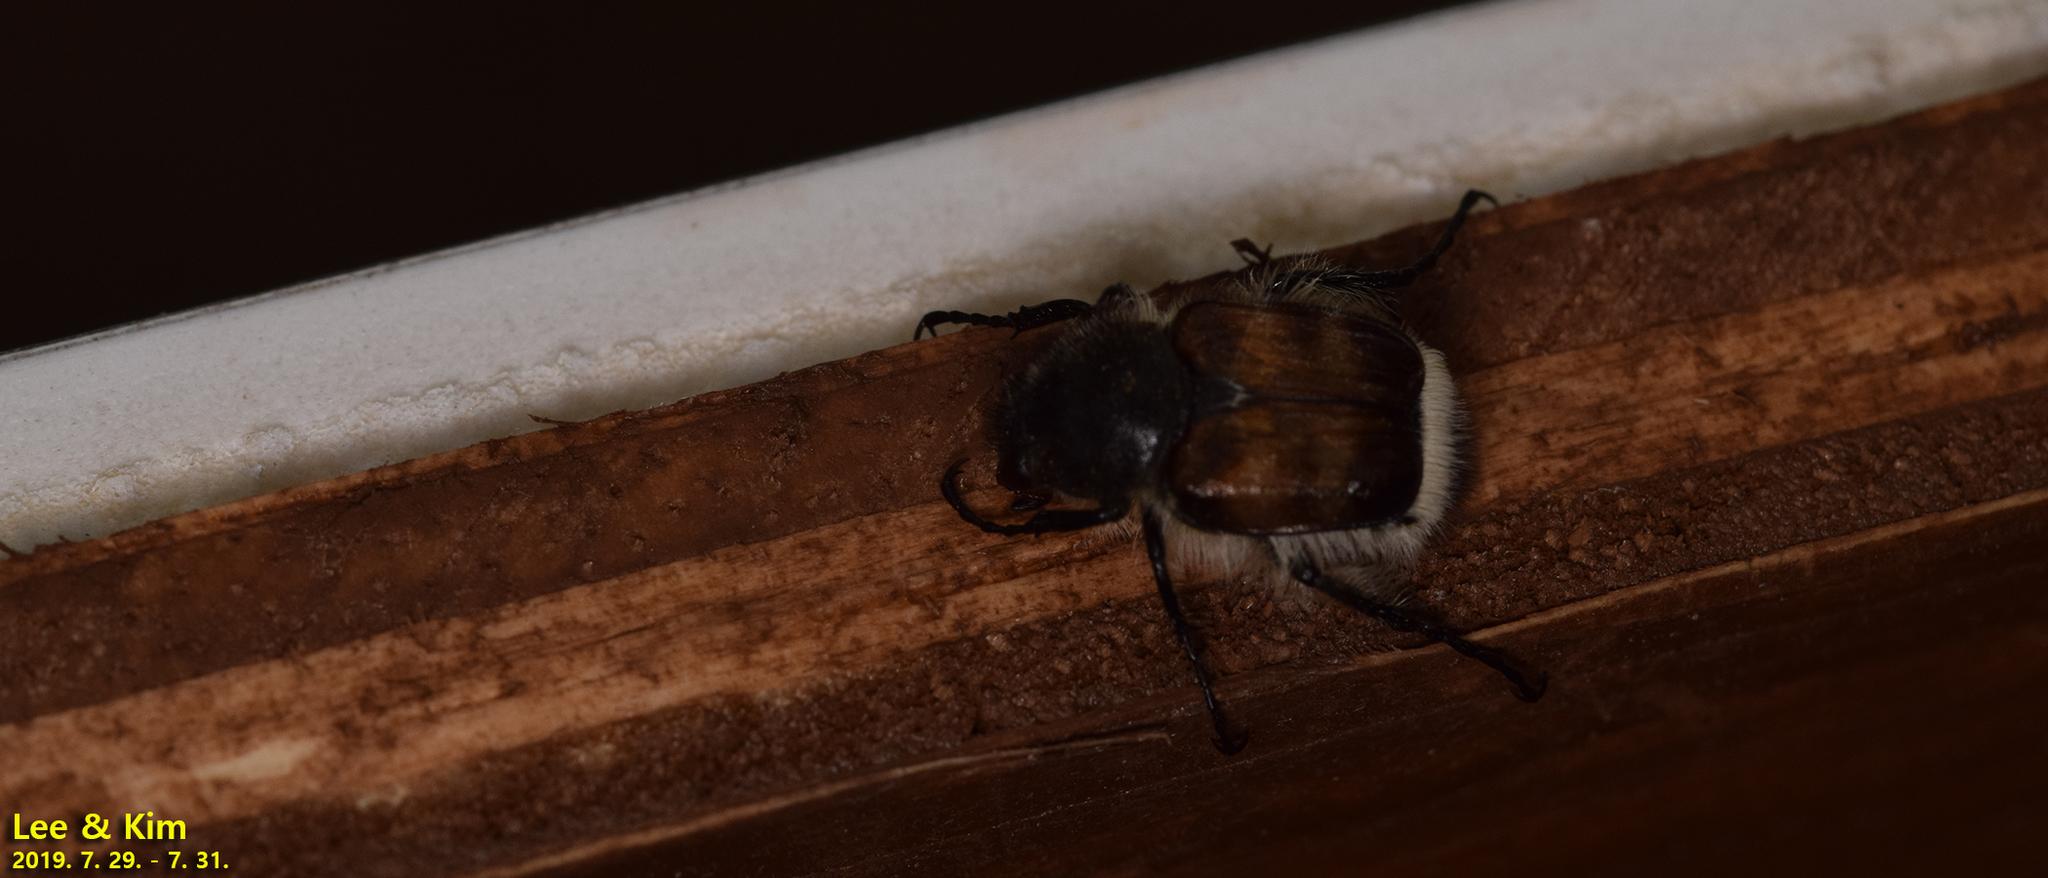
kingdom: Animalia
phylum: Arthropoda
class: Insecta
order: Coleoptera
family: Scarabaeidae
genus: Lasiotrichius
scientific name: Lasiotrichius succinctus
